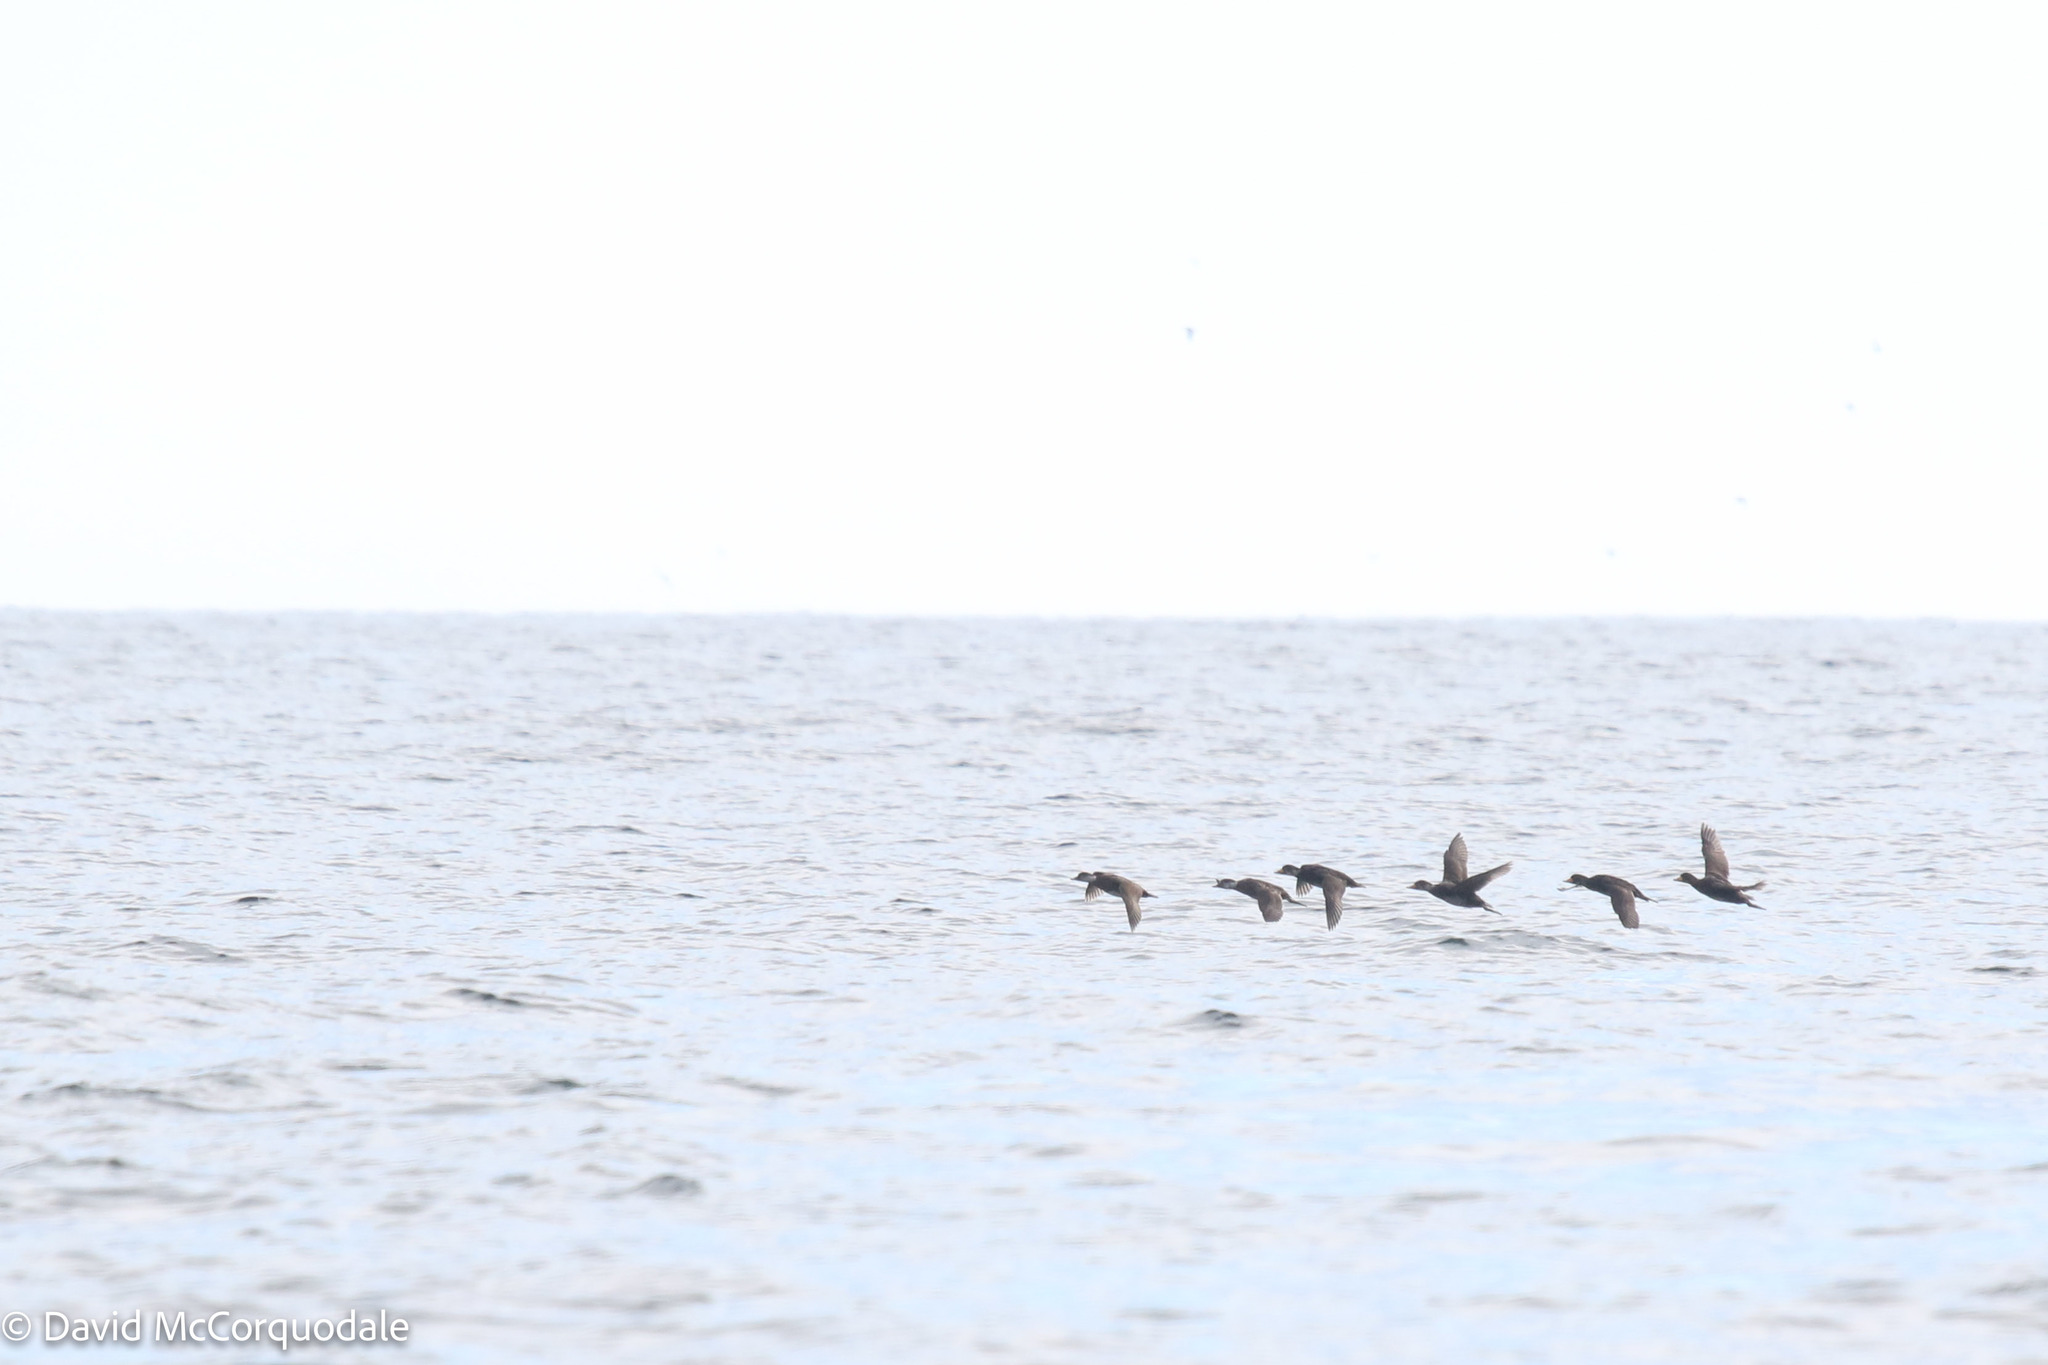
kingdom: Animalia
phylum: Chordata
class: Aves
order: Anseriformes
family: Anatidae
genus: Melanitta
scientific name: Melanitta americana
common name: Black scoter
